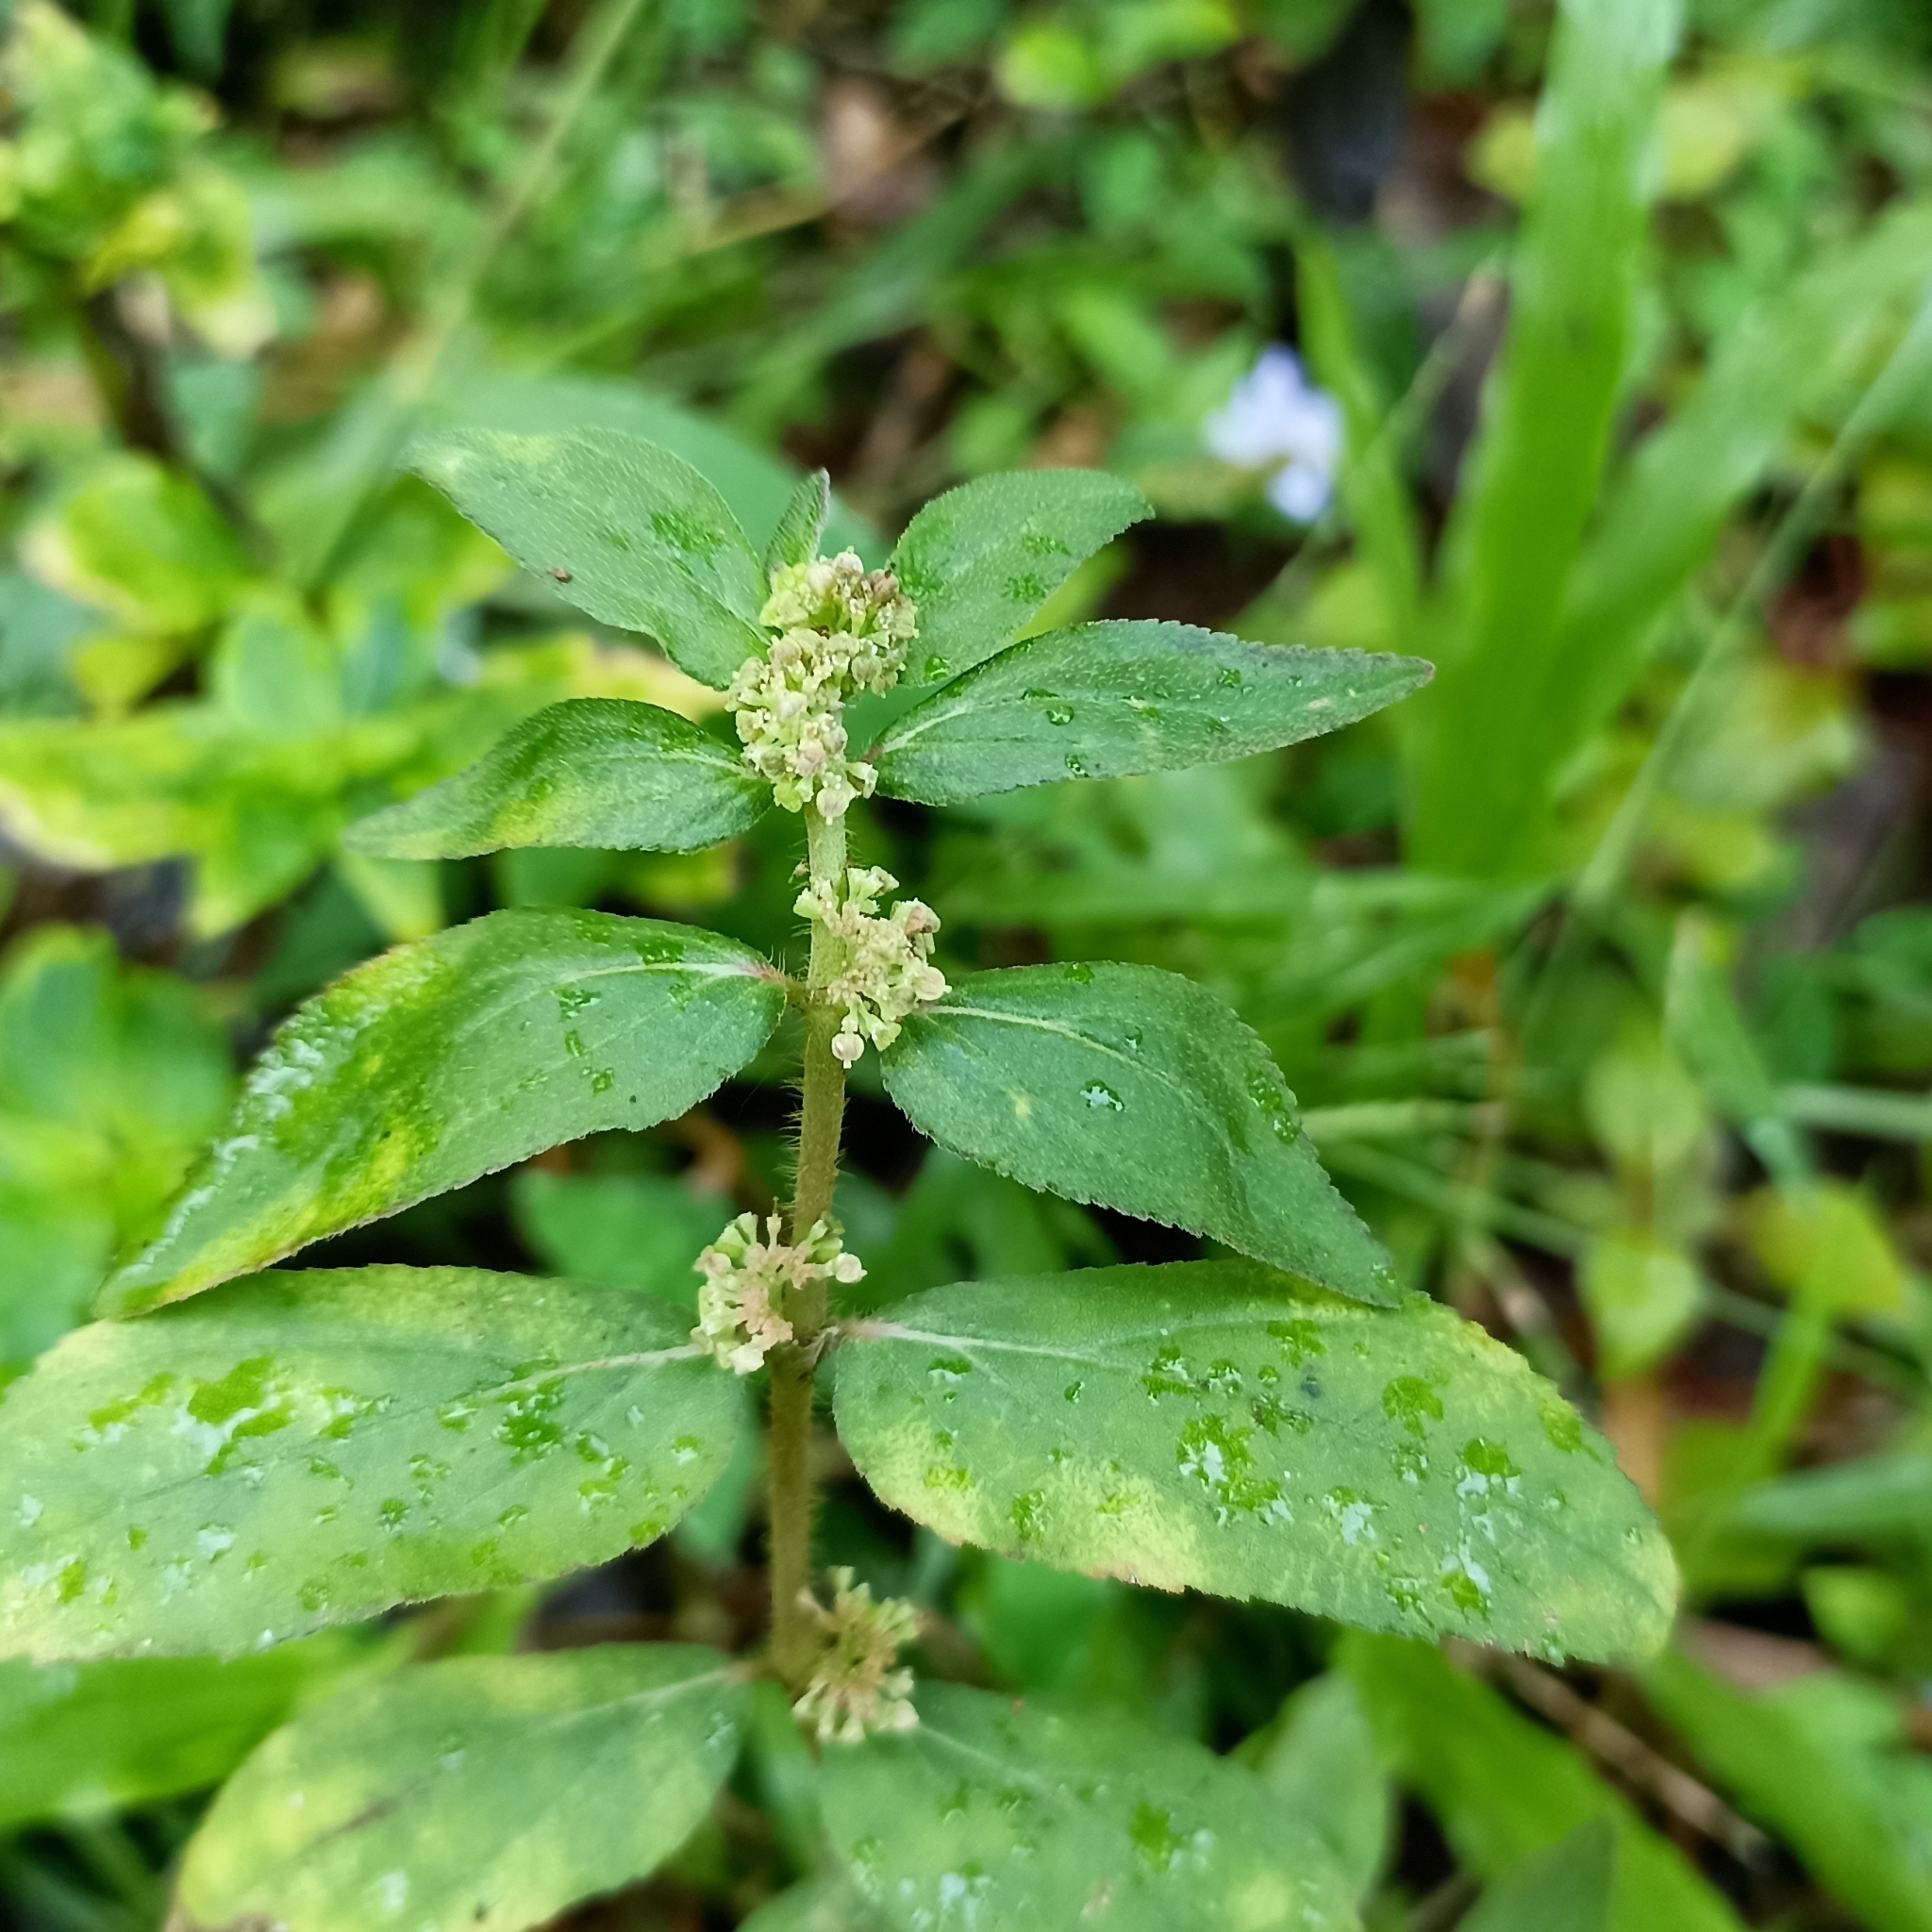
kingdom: Plantae
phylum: Tracheophyta
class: Magnoliopsida
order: Malpighiales
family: Euphorbiaceae
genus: Euphorbia
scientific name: Euphorbia hirta
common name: Pillpod sandmat
